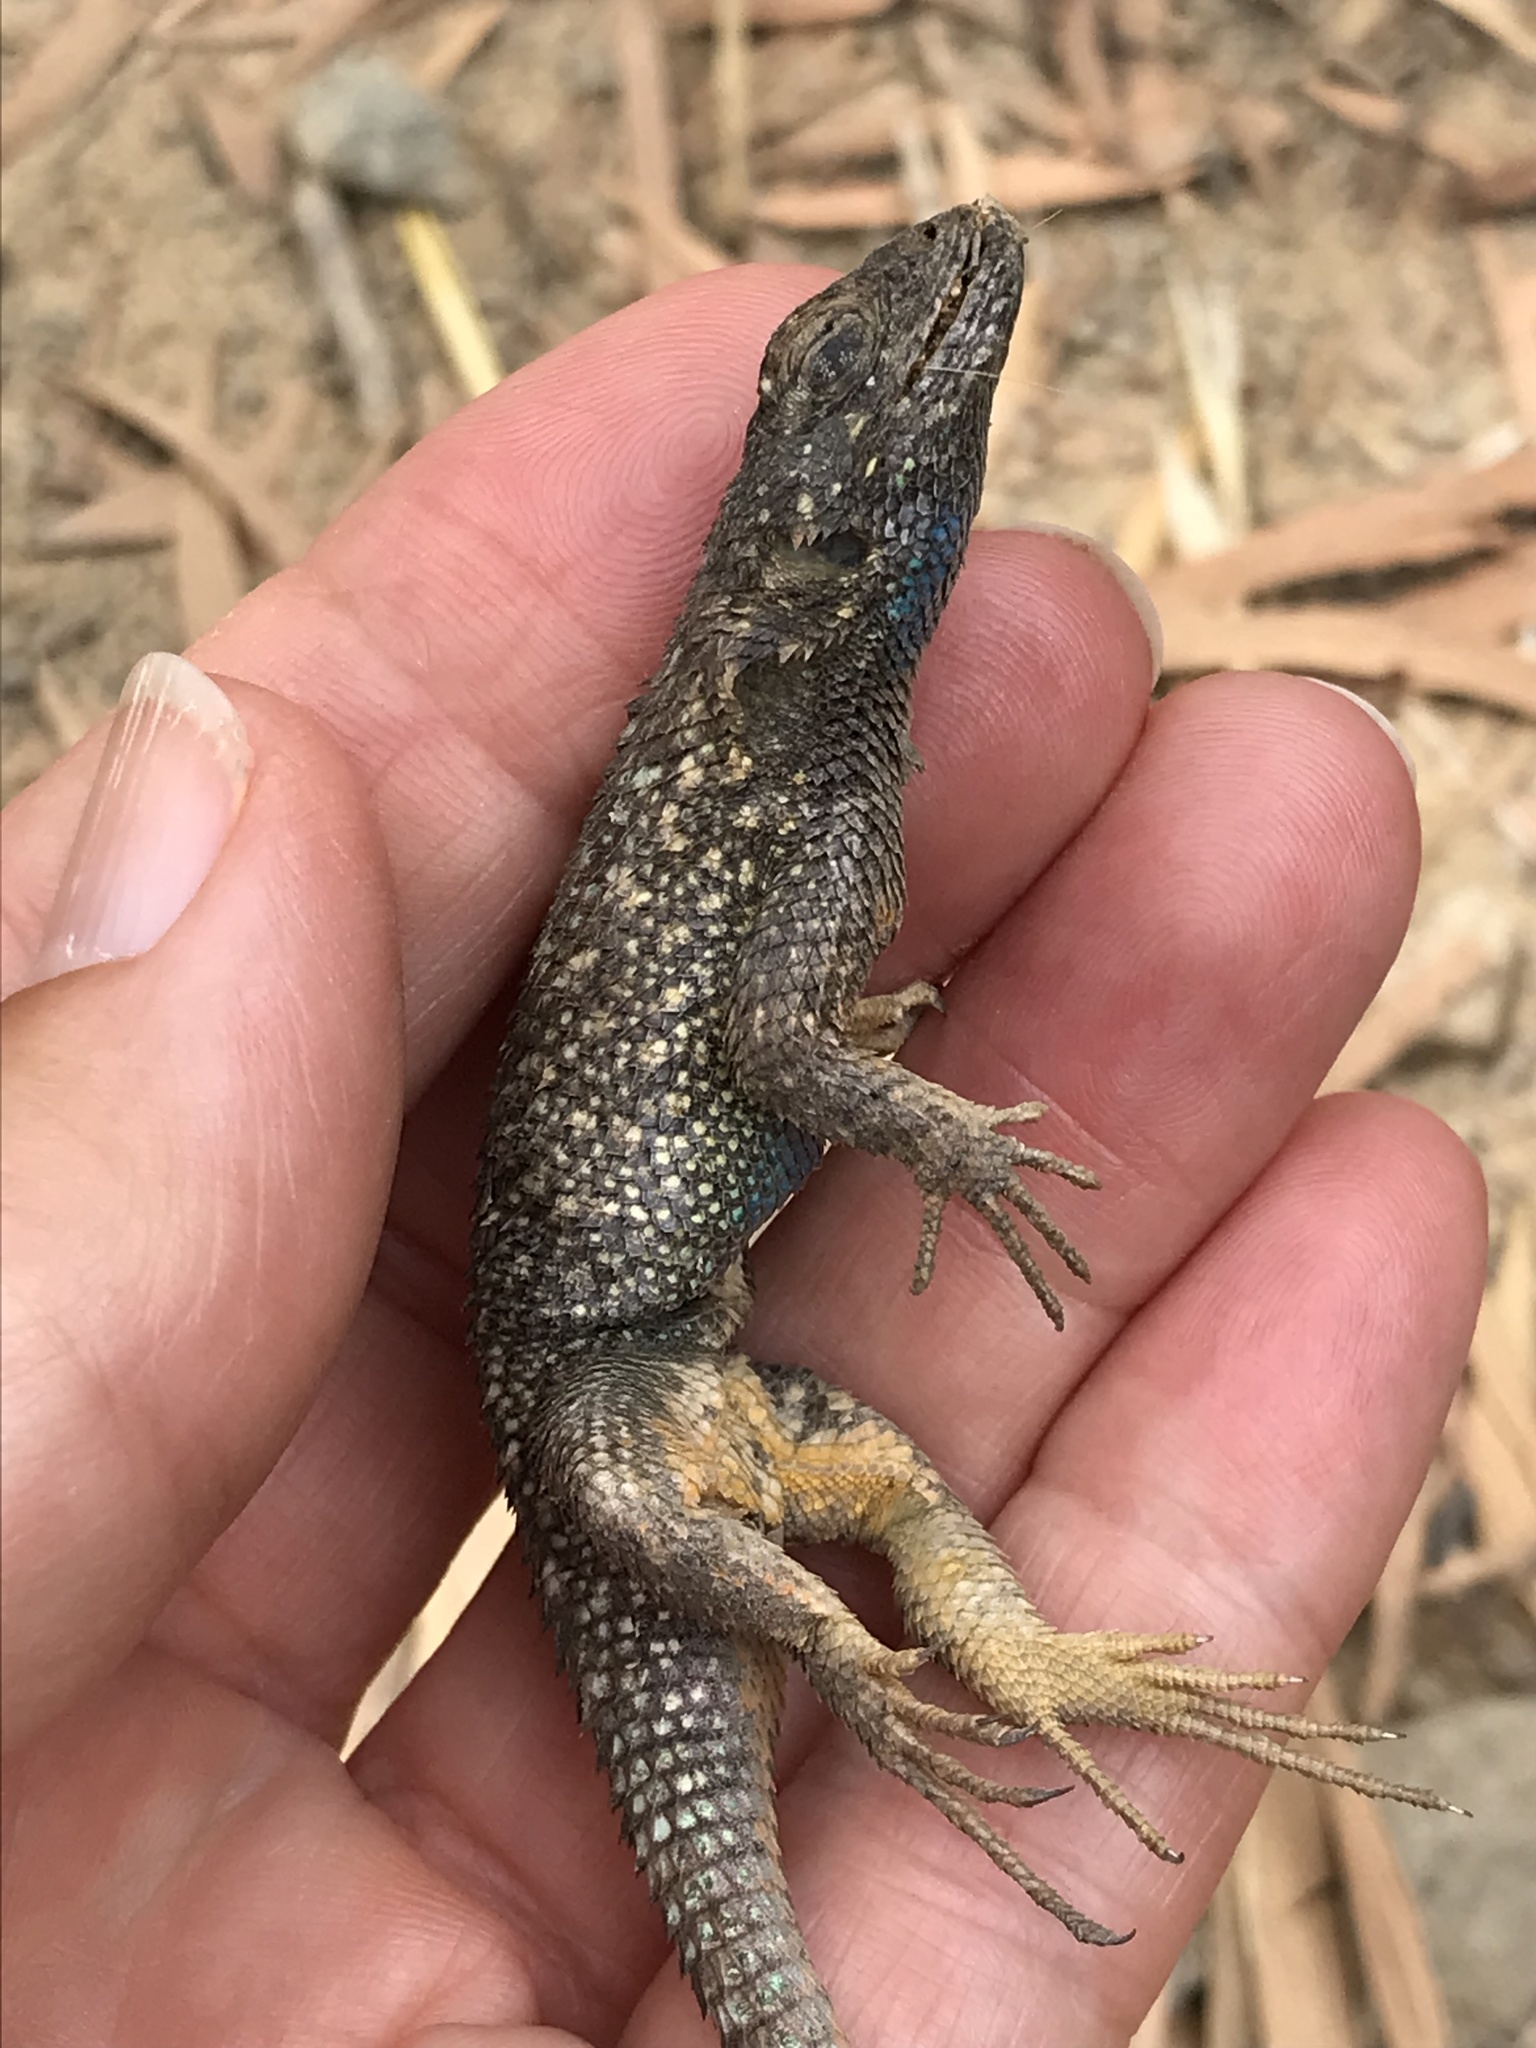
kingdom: Animalia
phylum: Chordata
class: Squamata
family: Phrynosomatidae
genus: Sceloporus
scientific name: Sceloporus occidentalis
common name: Western fence lizard
